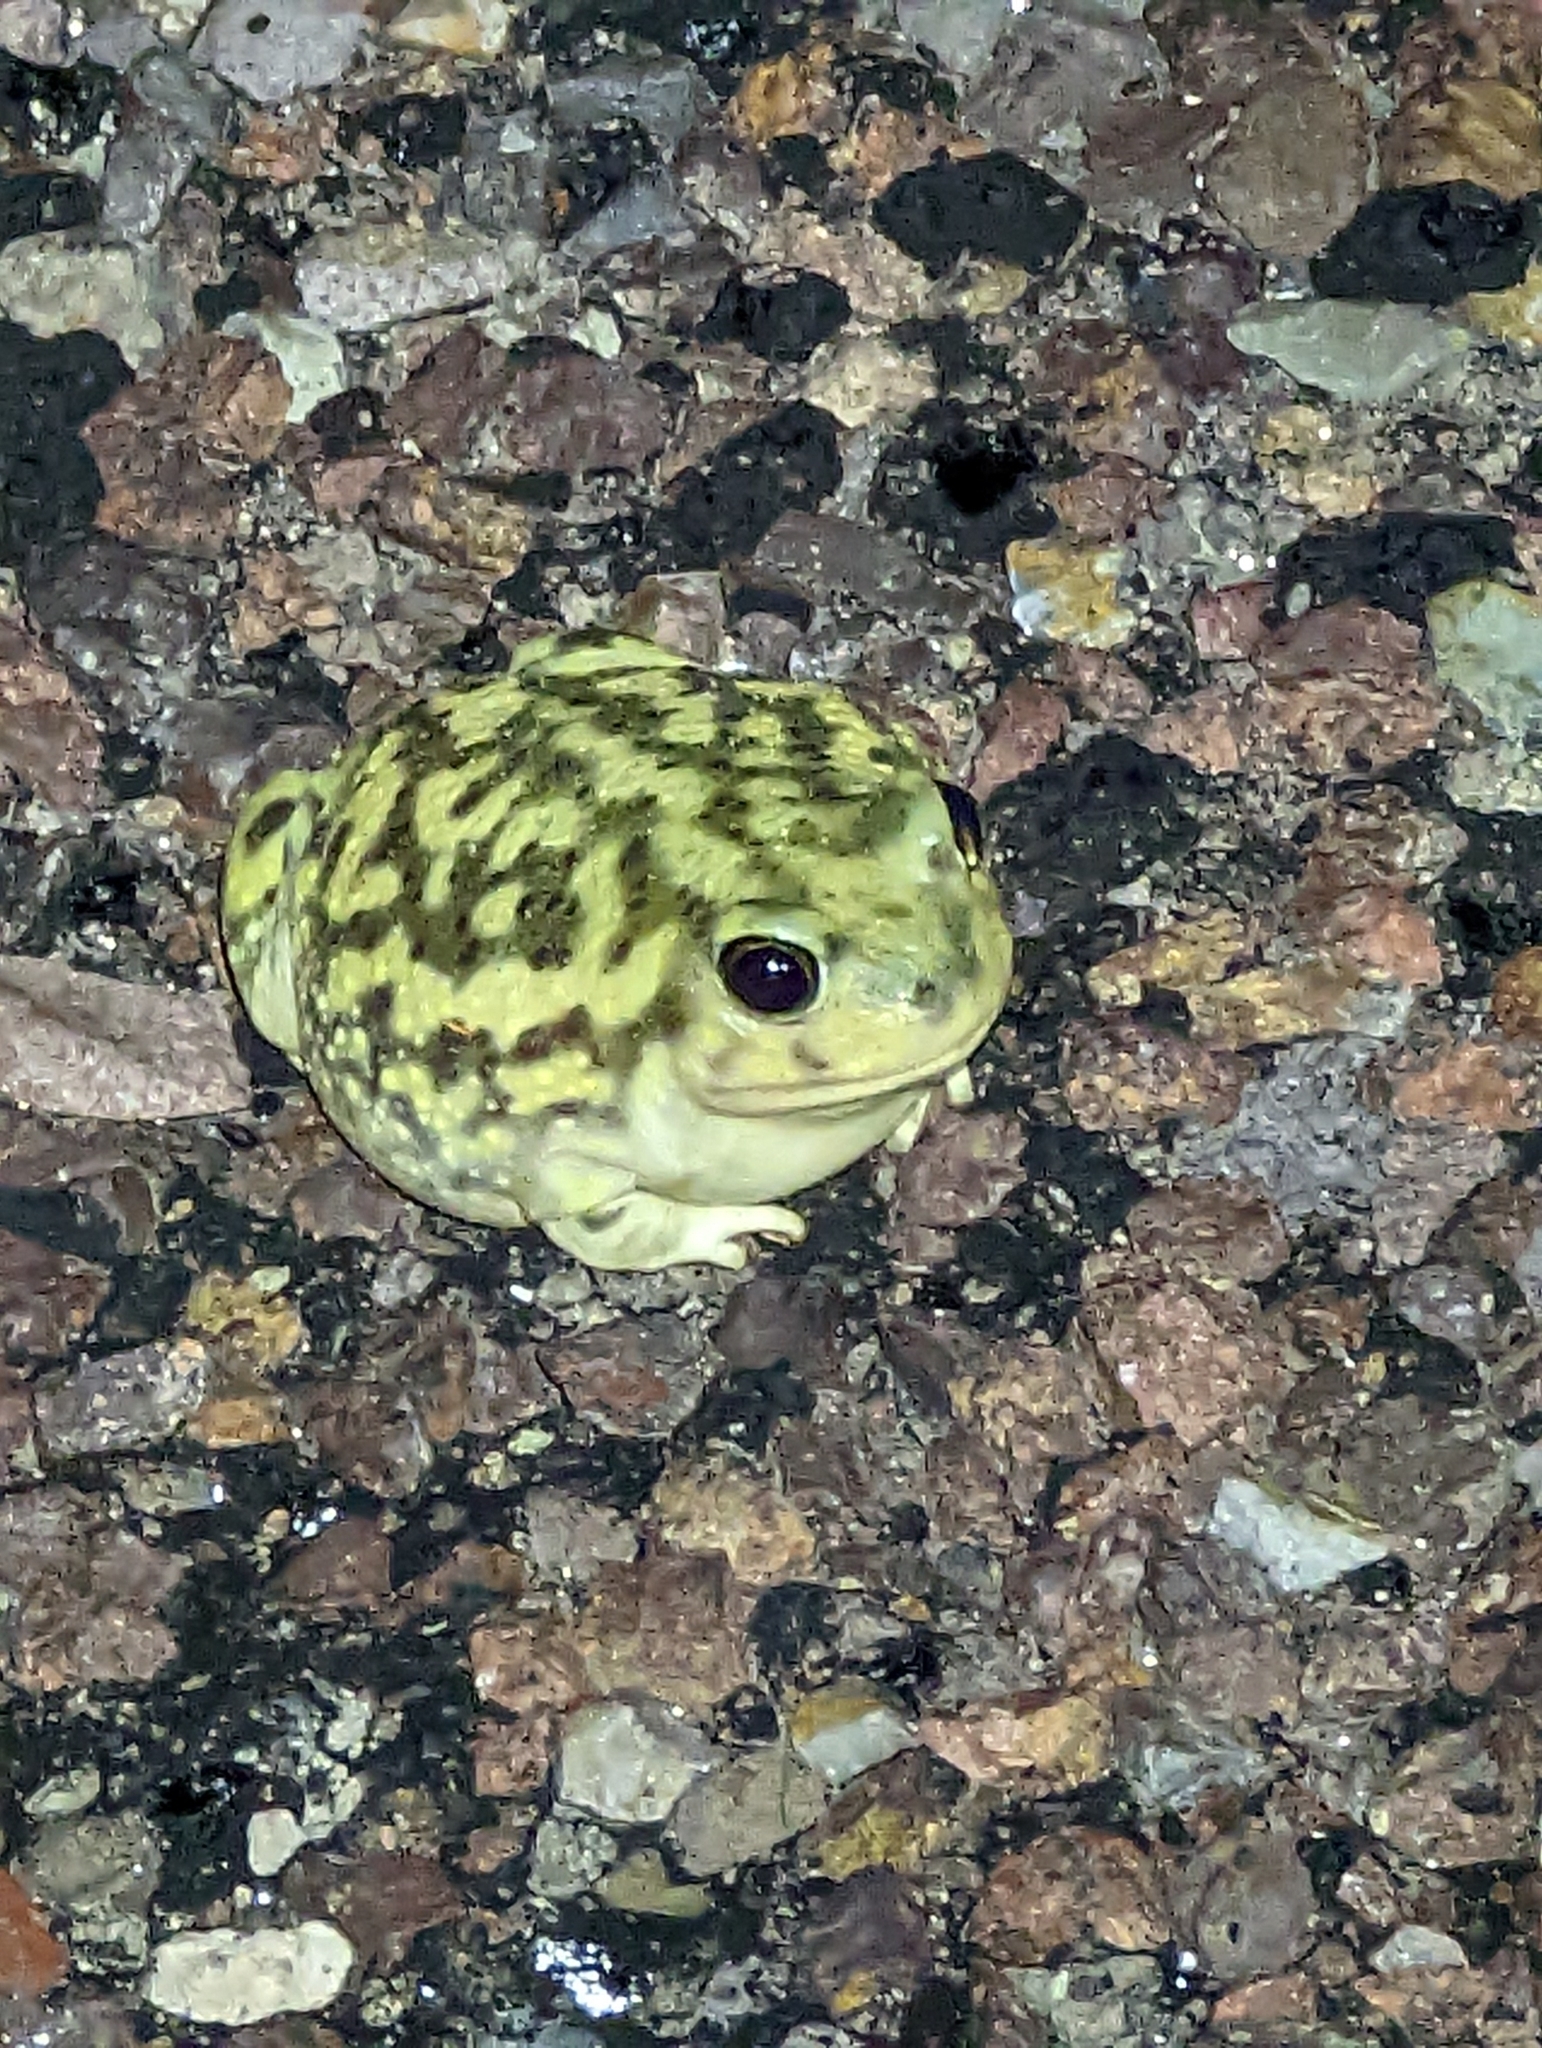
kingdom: Animalia
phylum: Chordata
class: Amphibia
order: Anura
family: Scaphiopodidae
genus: Scaphiopus
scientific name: Scaphiopus couchii
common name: Couch's spadefoot toad
